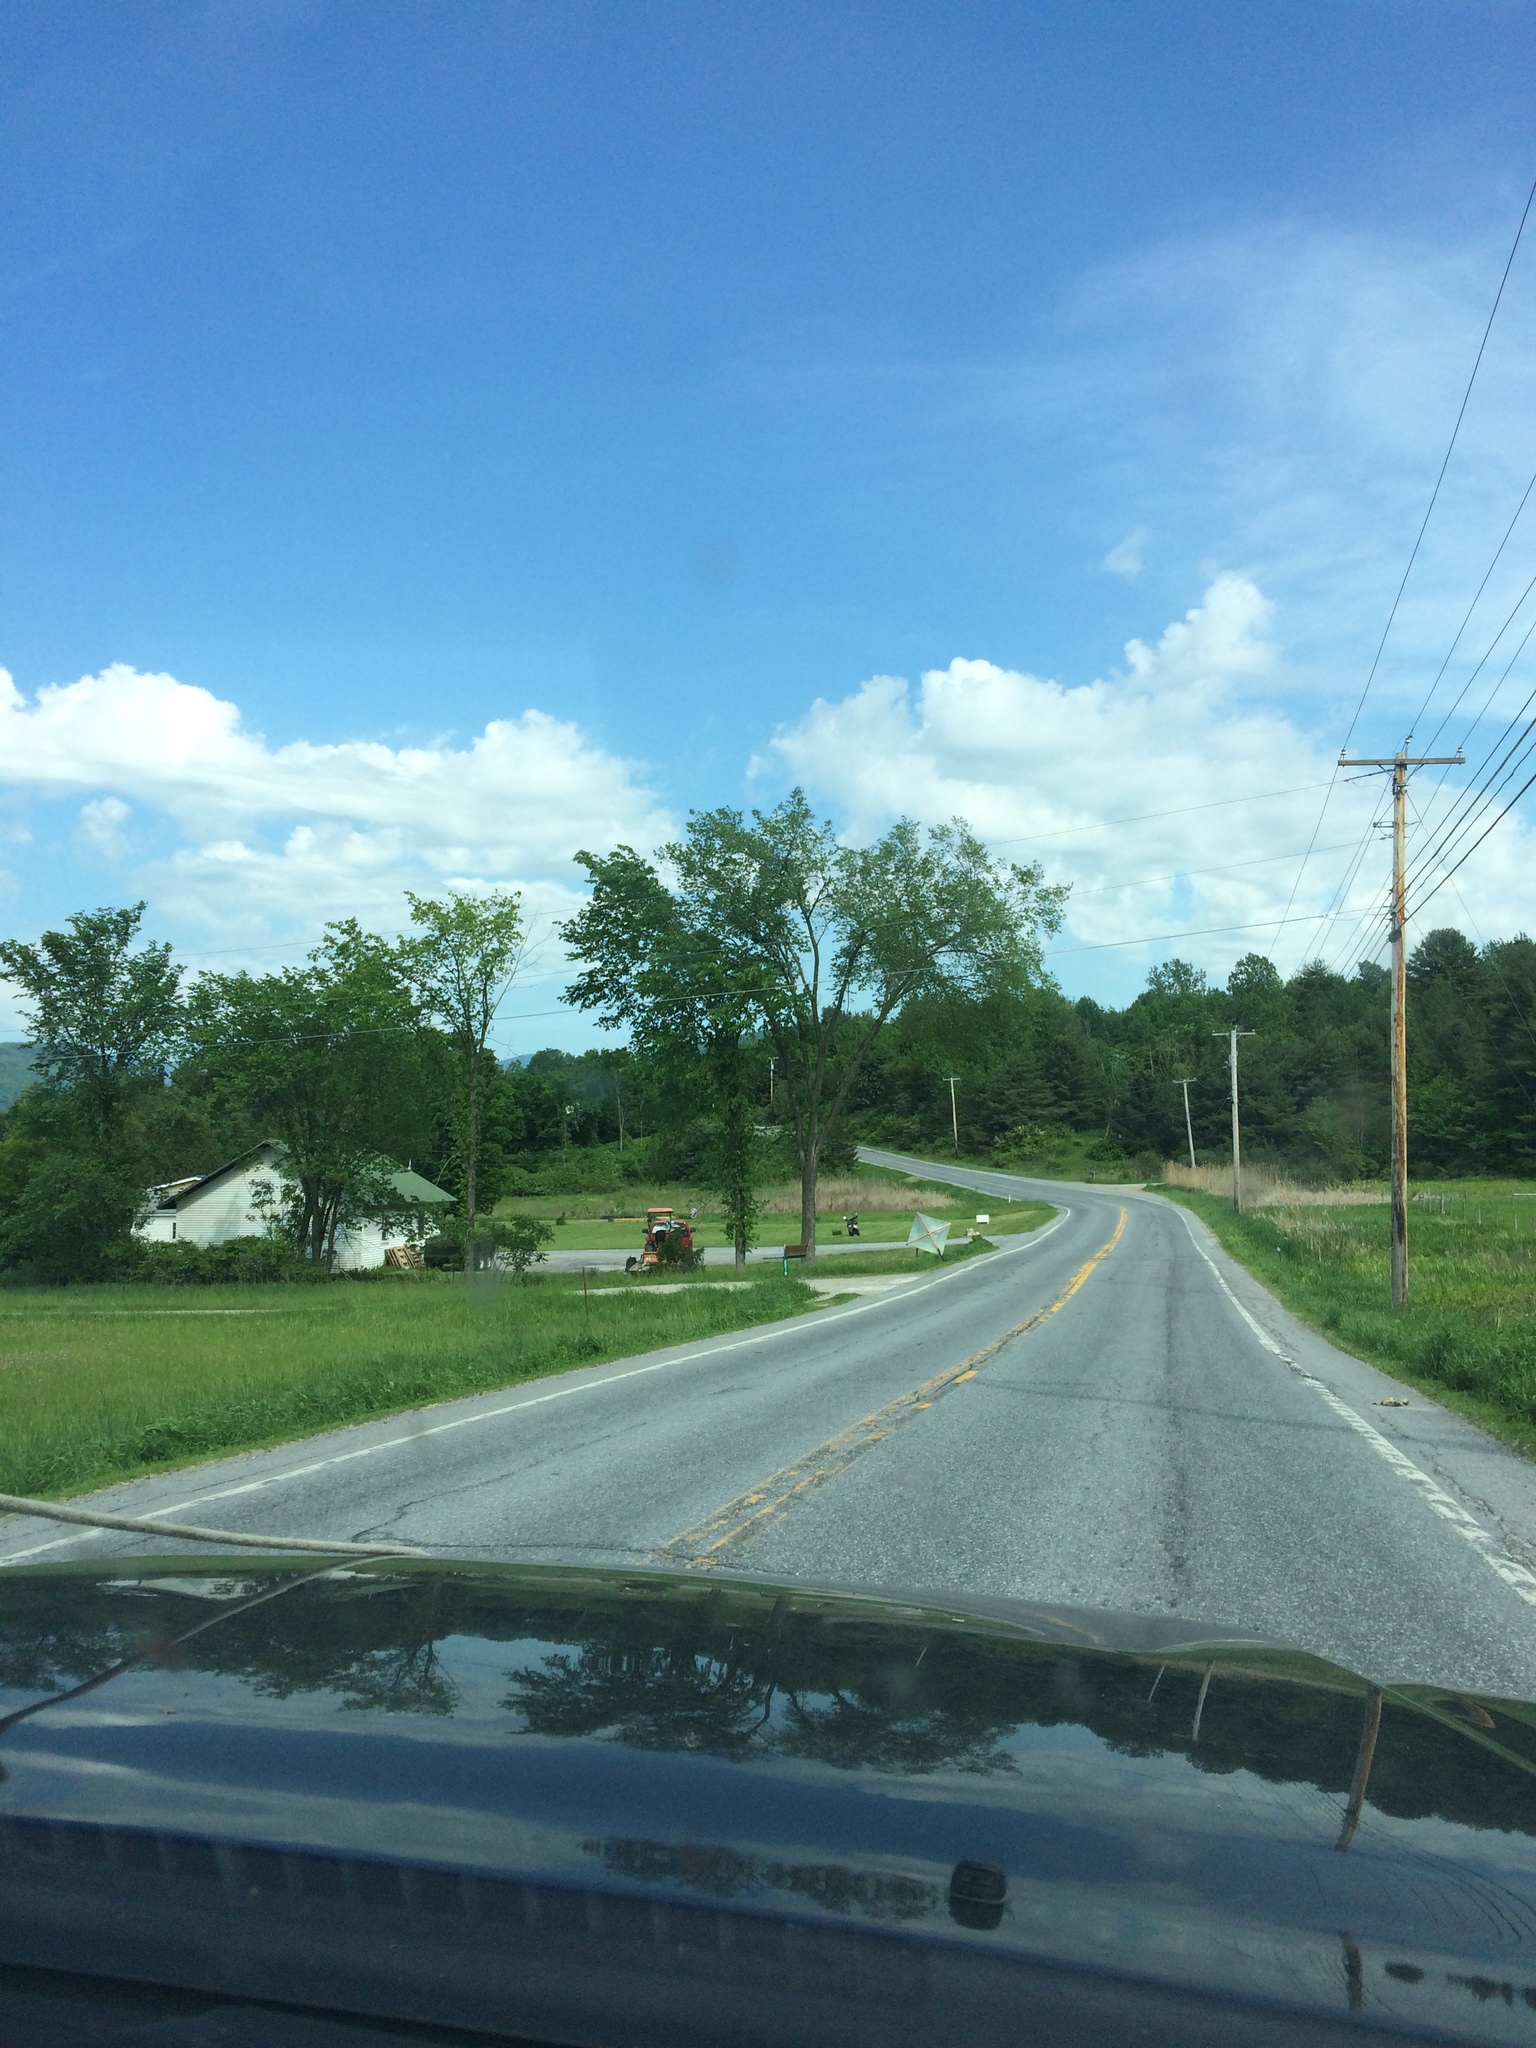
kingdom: Plantae
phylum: Tracheophyta
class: Magnoliopsida
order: Rosales
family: Ulmaceae
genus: Ulmus
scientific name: Ulmus americana
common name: American elm
